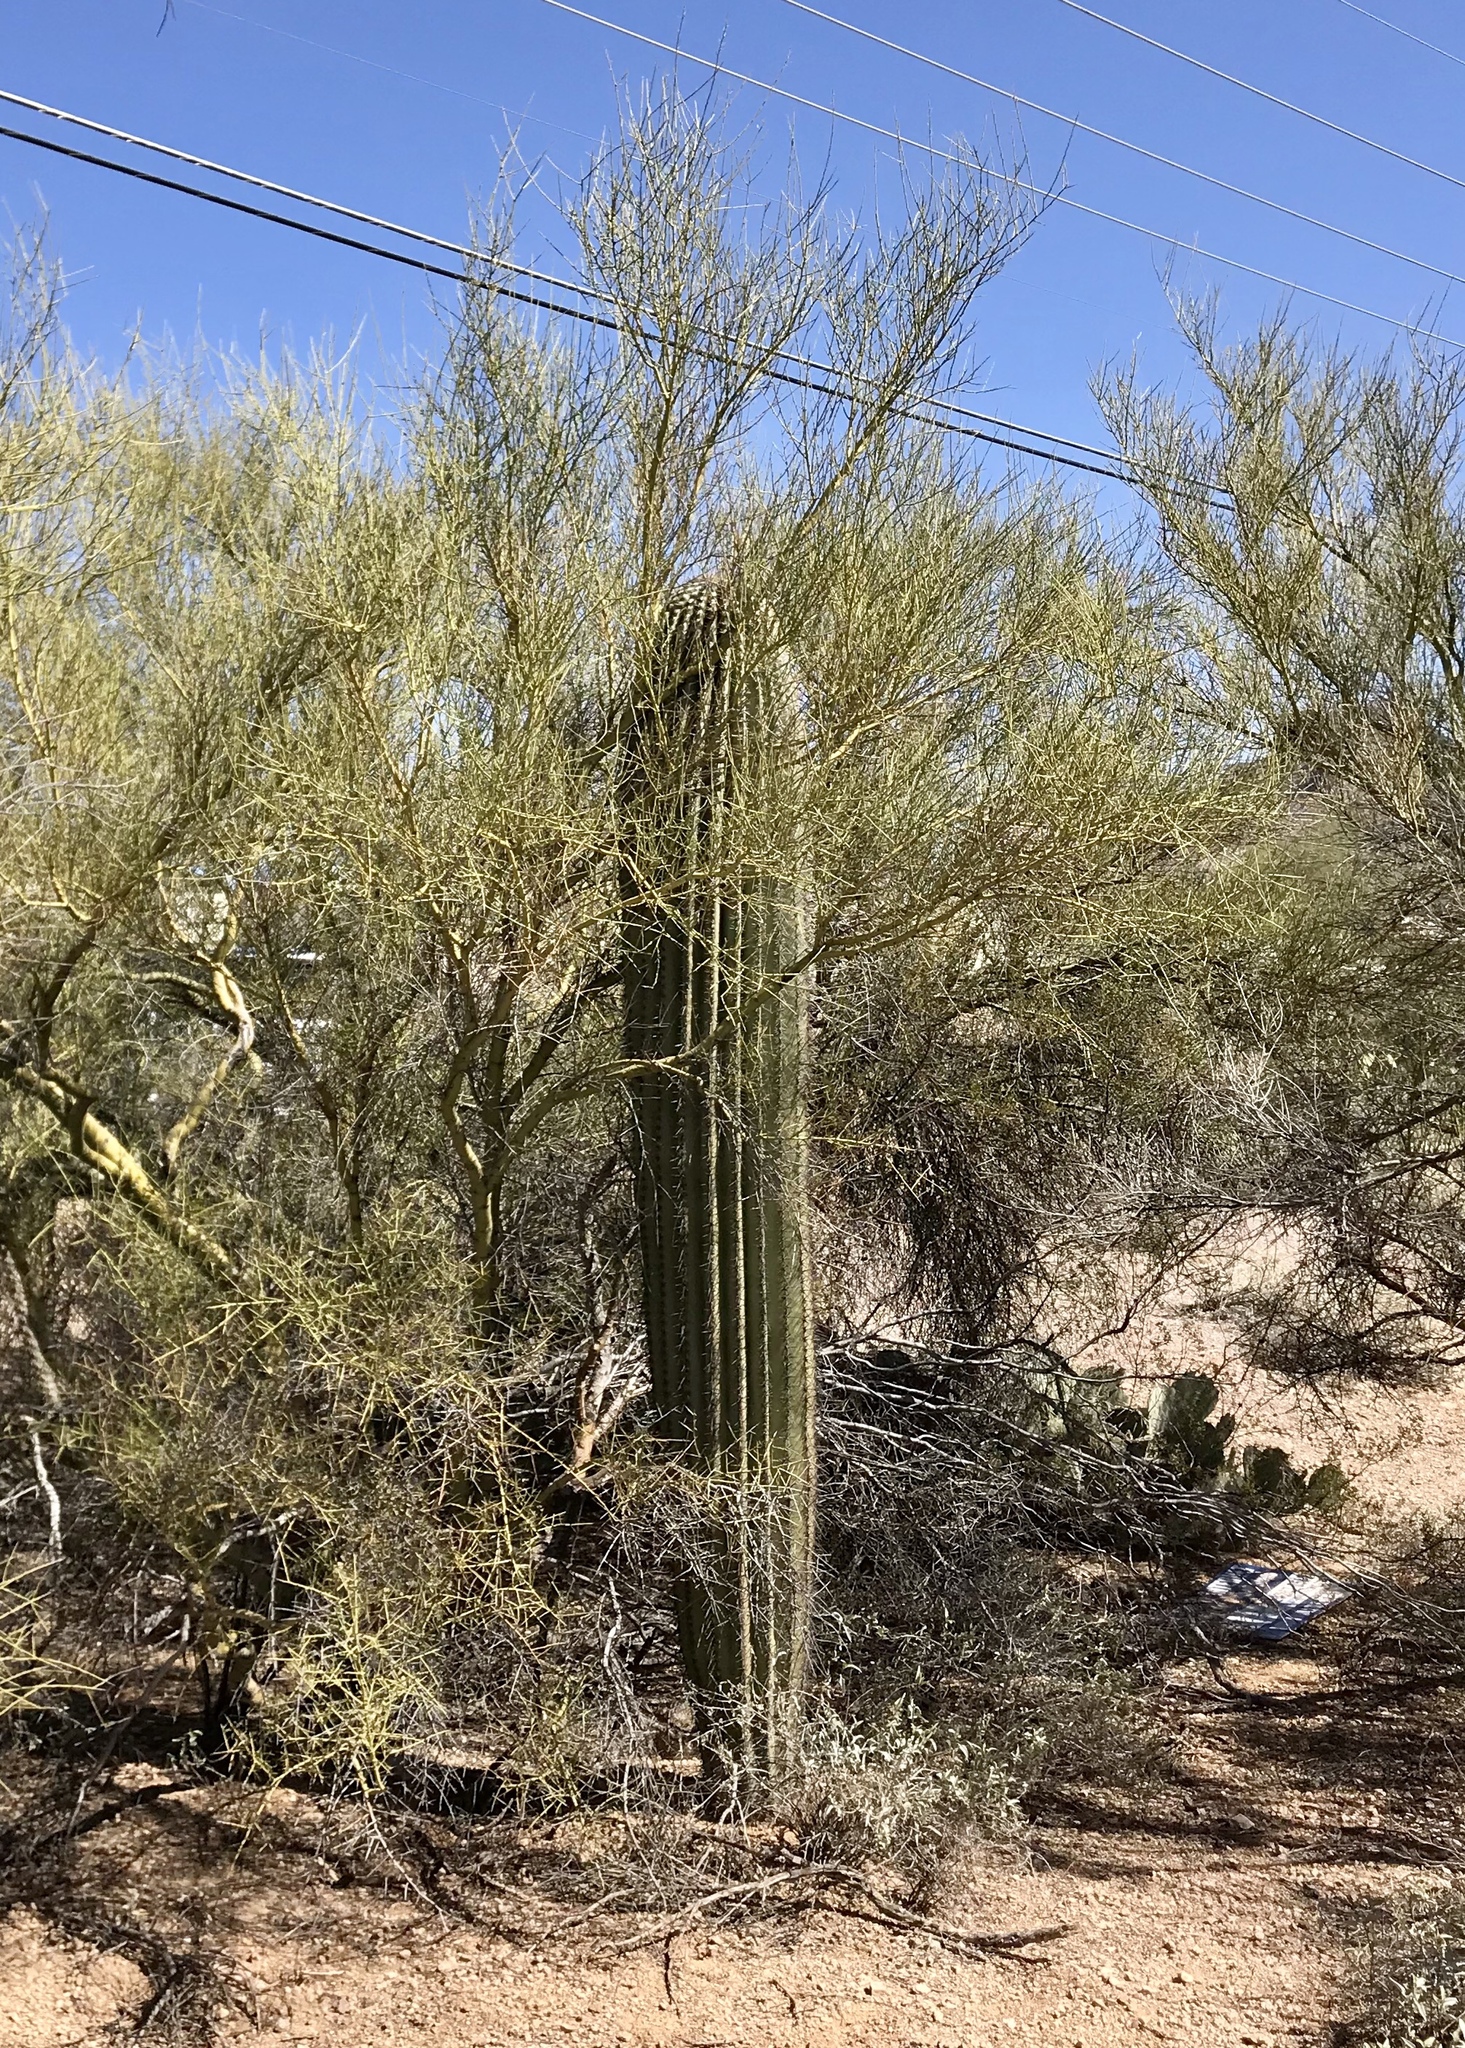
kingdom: Plantae
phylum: Tracheophyta
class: Magnoliopsida
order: Fabales
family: Fabaceae
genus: Parkinsonia
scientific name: Parkinsonia microphylla
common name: Yellow paloverde
